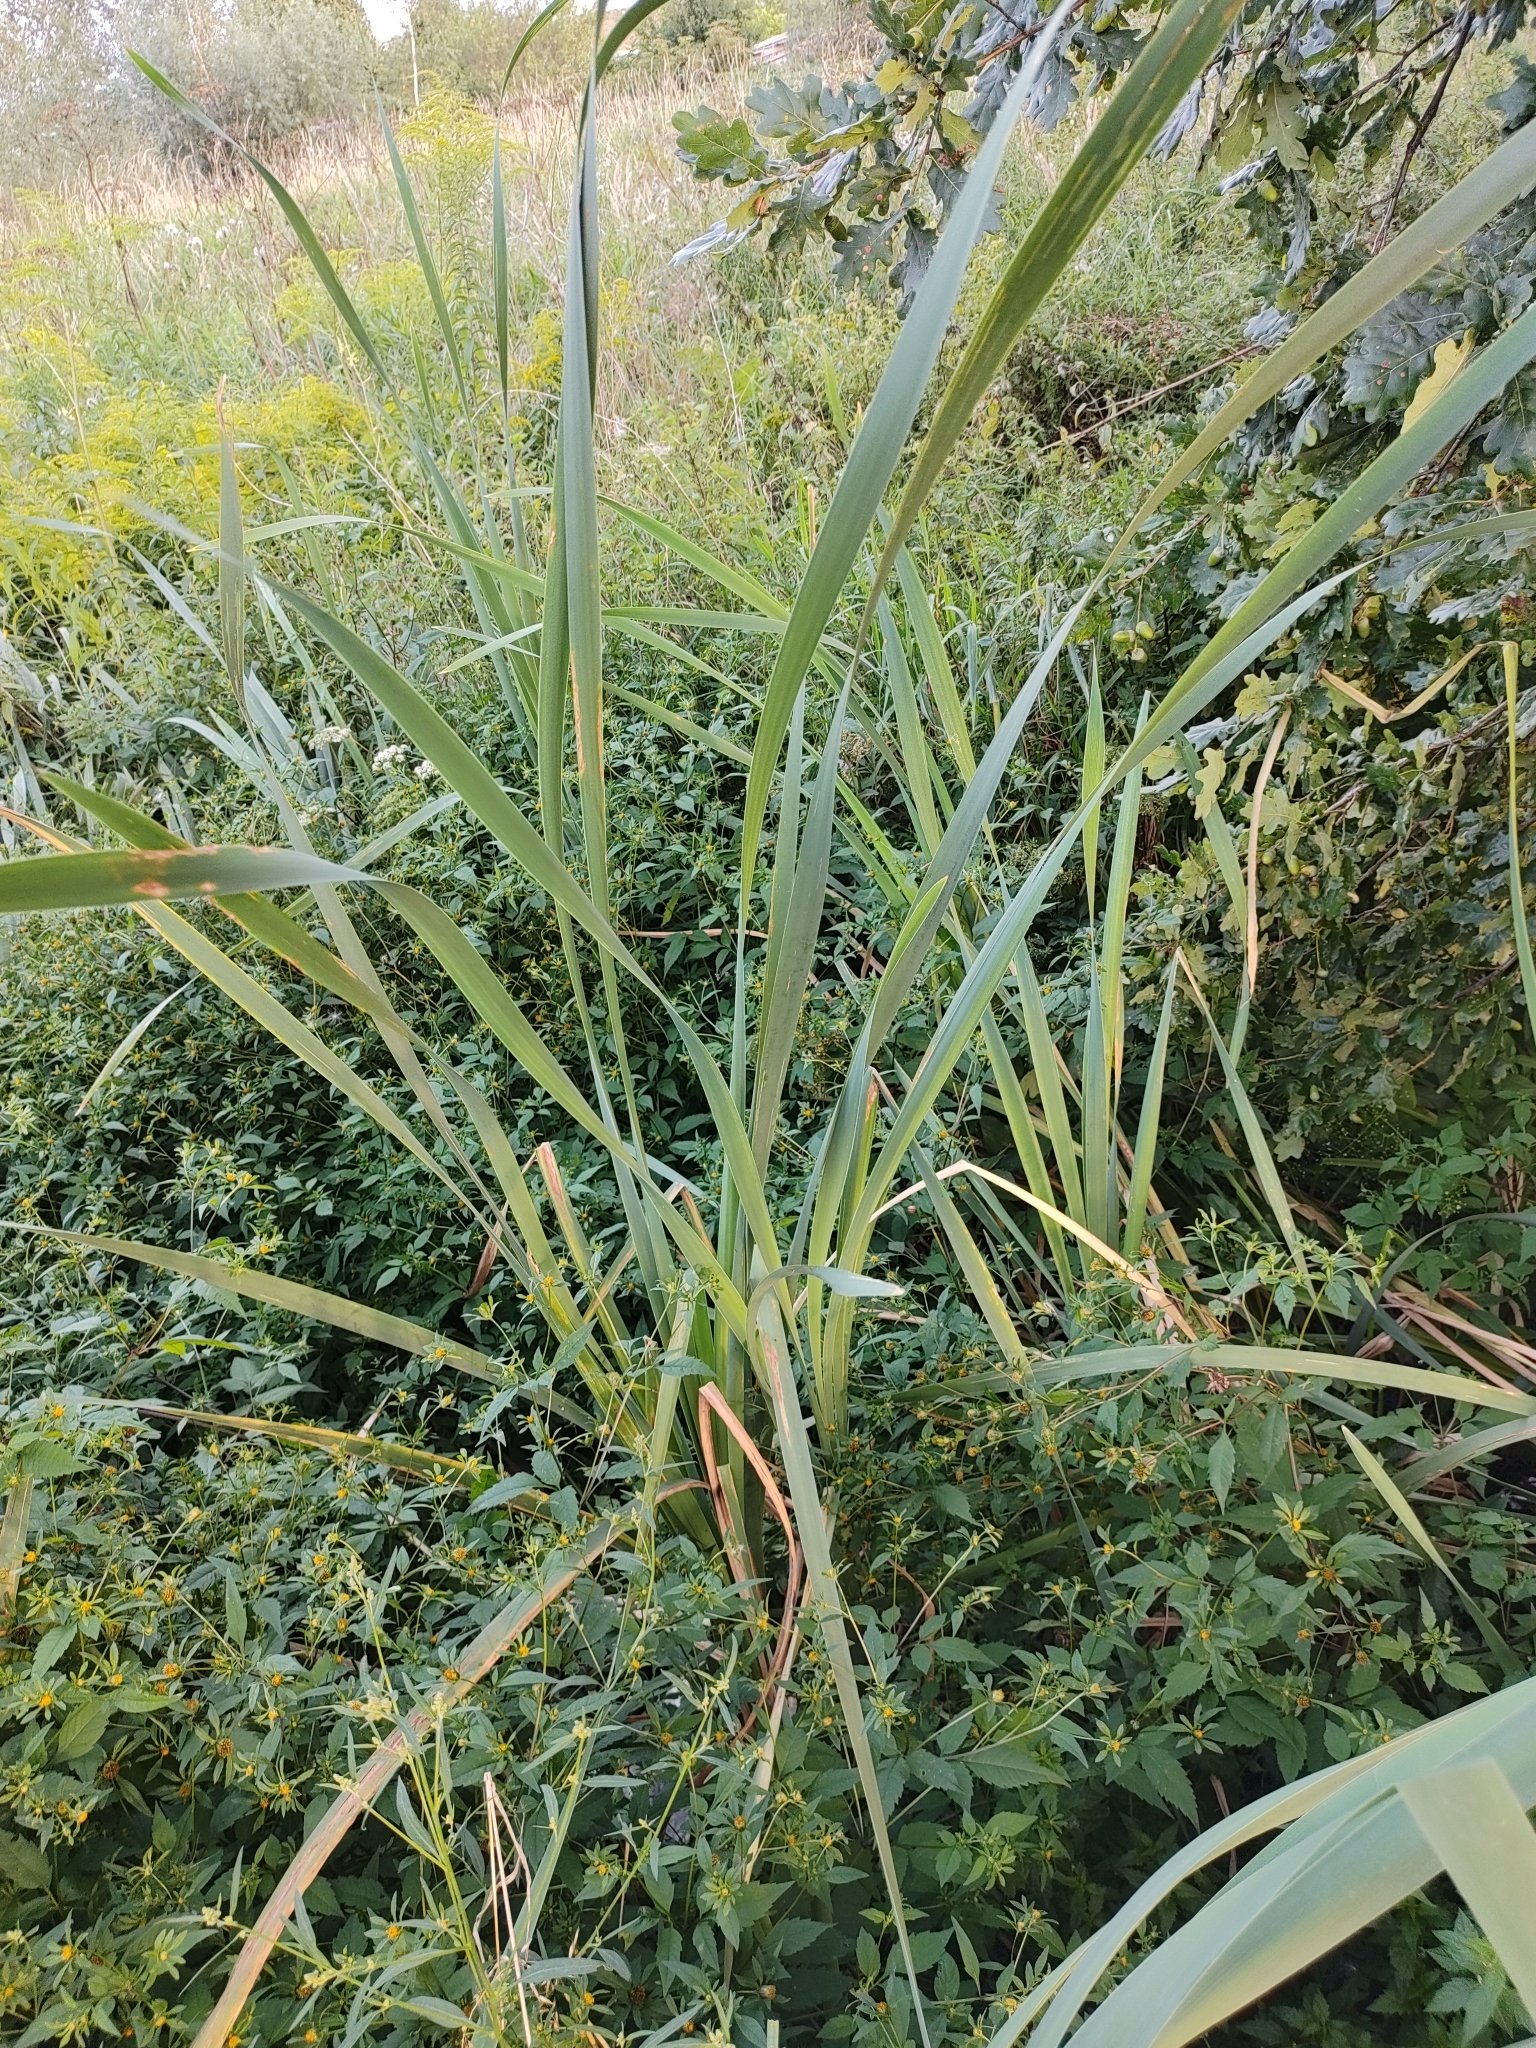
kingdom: Plantae
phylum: Tracheophyta
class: Liliopsida
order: Poales
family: Typhaceae
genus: Typha
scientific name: Typha latifolia
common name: Broadleaf cattail
